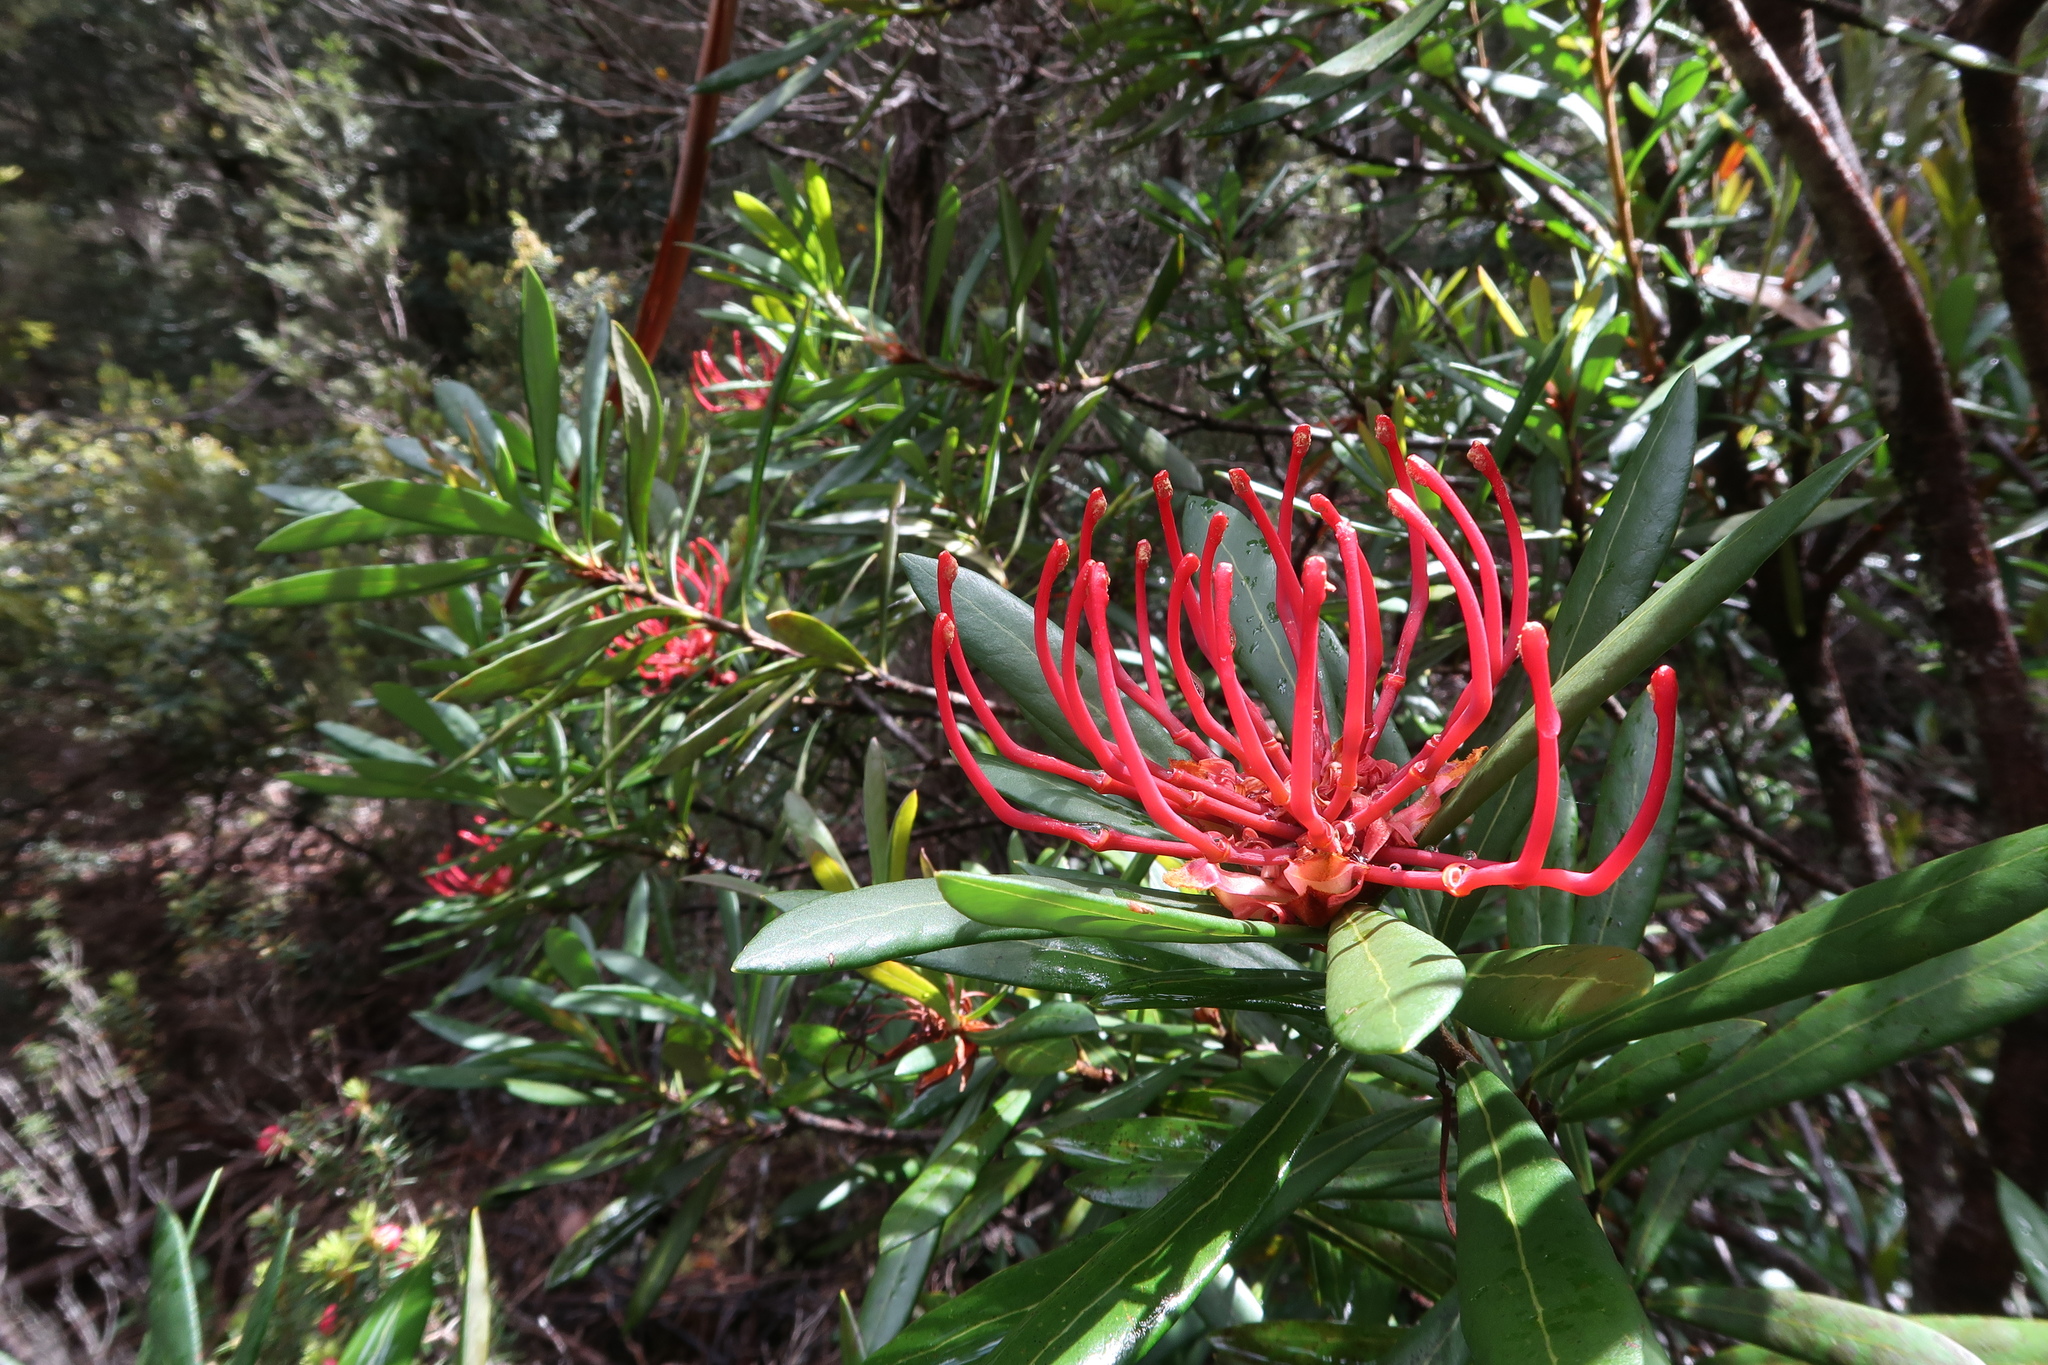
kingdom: Plantae
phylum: Tracheophyta
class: Magnoliopsida
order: Proteales
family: Proteaceae
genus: Telopea
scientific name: Telopea truncata
